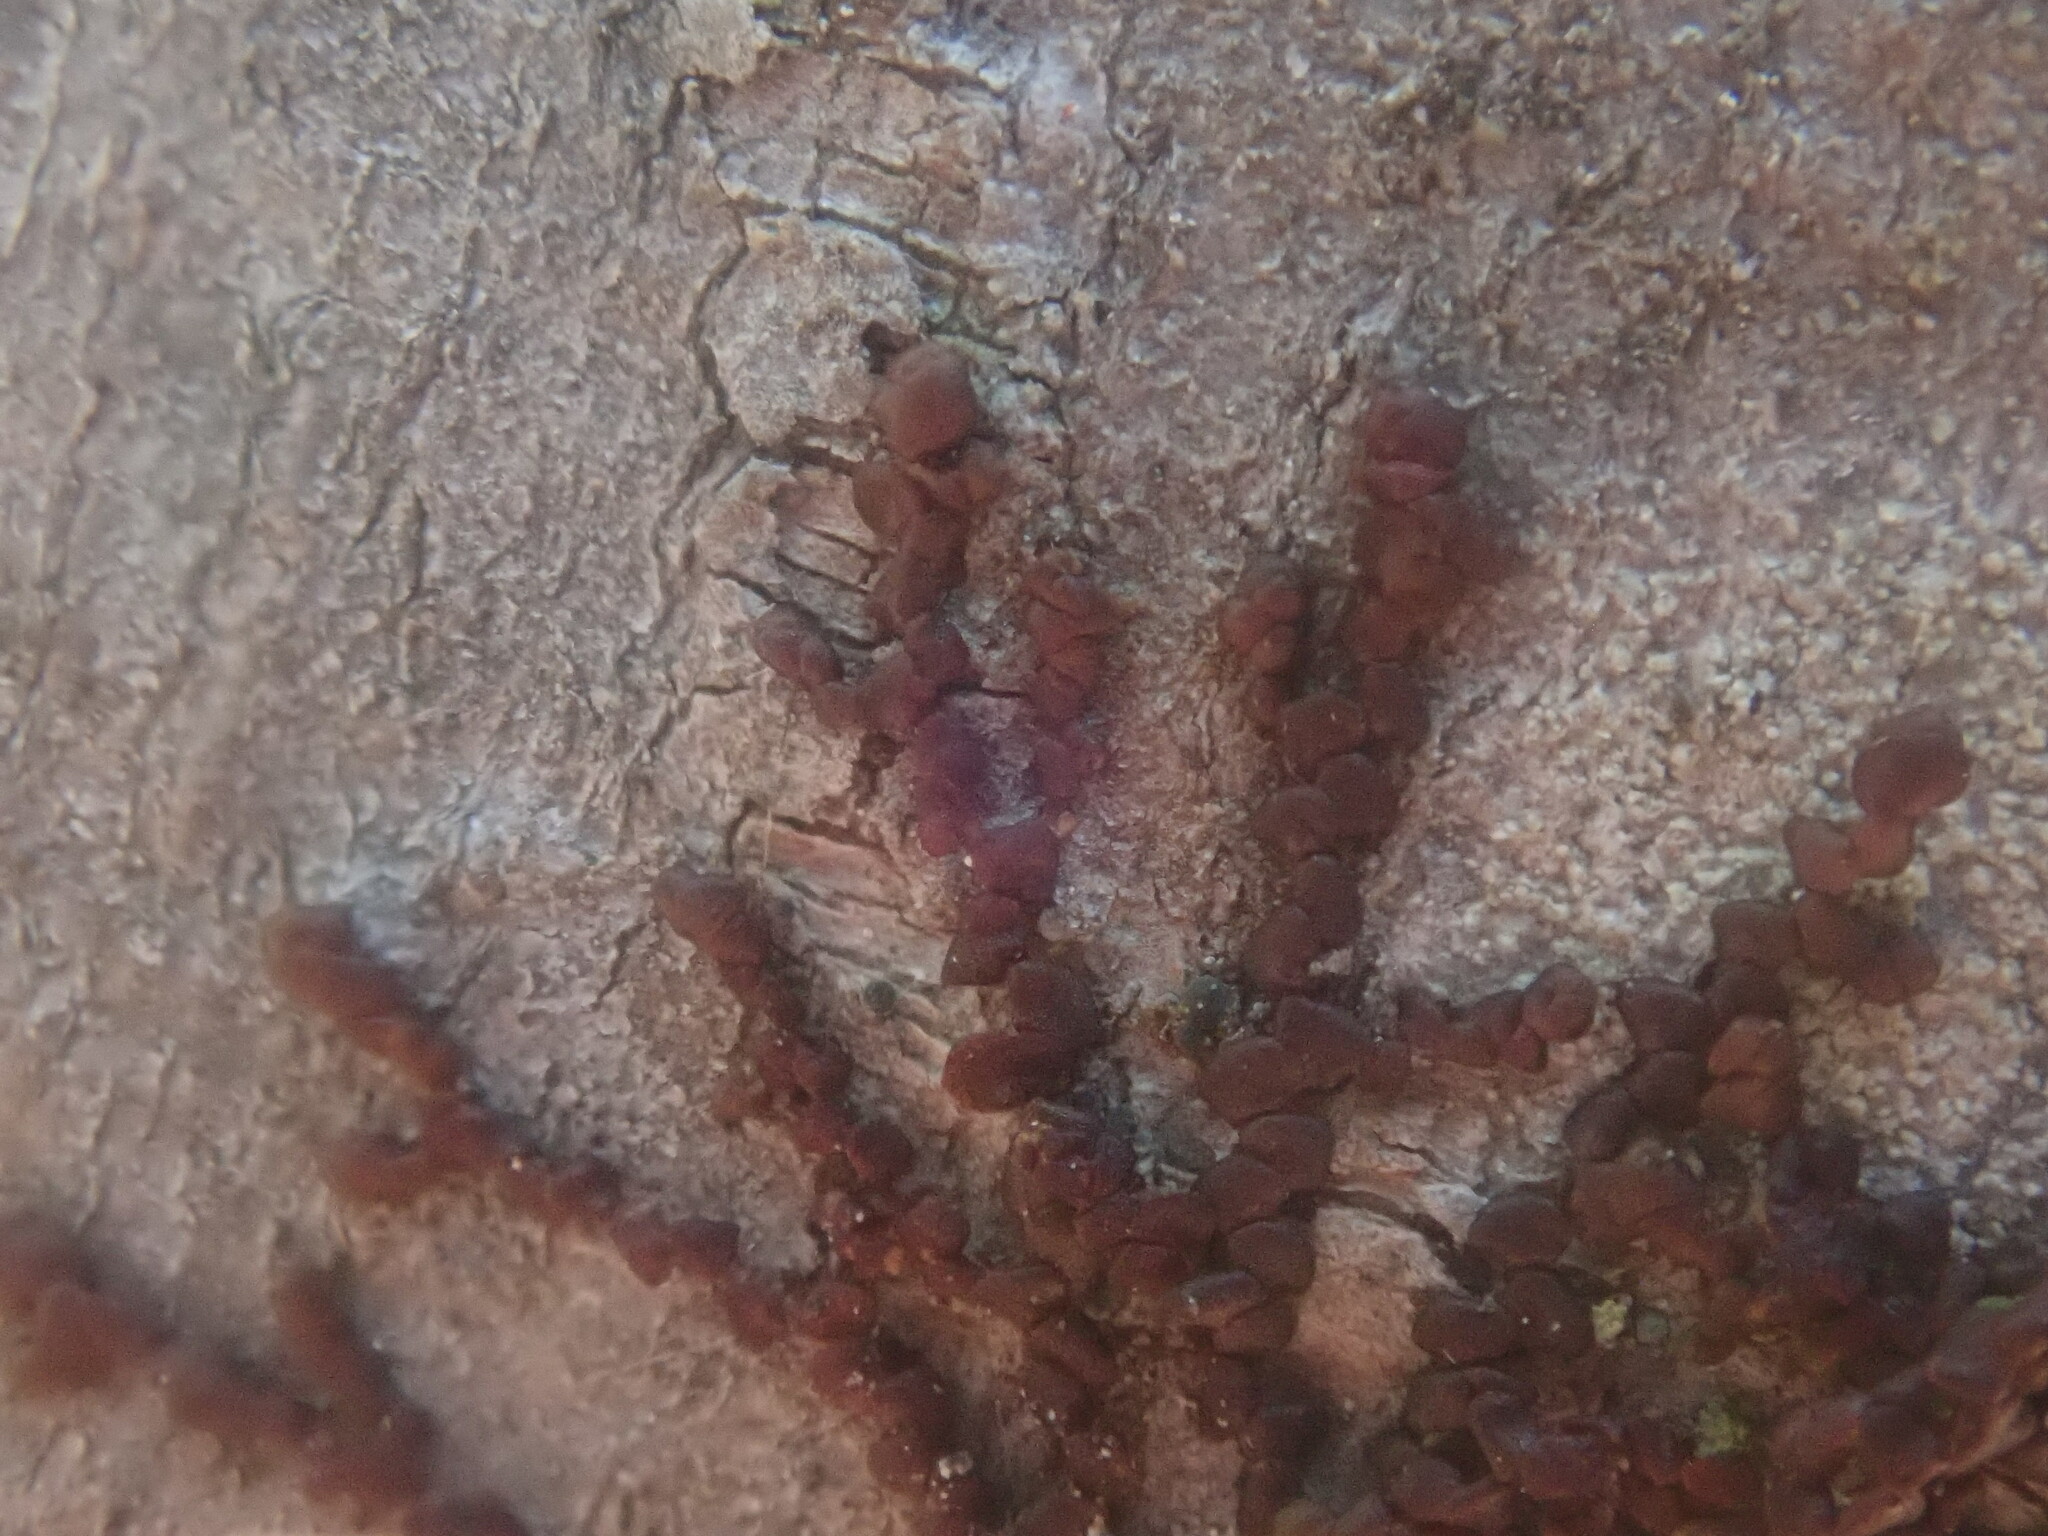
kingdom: Plantae
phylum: Marchantiophyta
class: Jungermanniopsida
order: Porellales
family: Frullaniaceae
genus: Frullania
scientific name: Frullania
